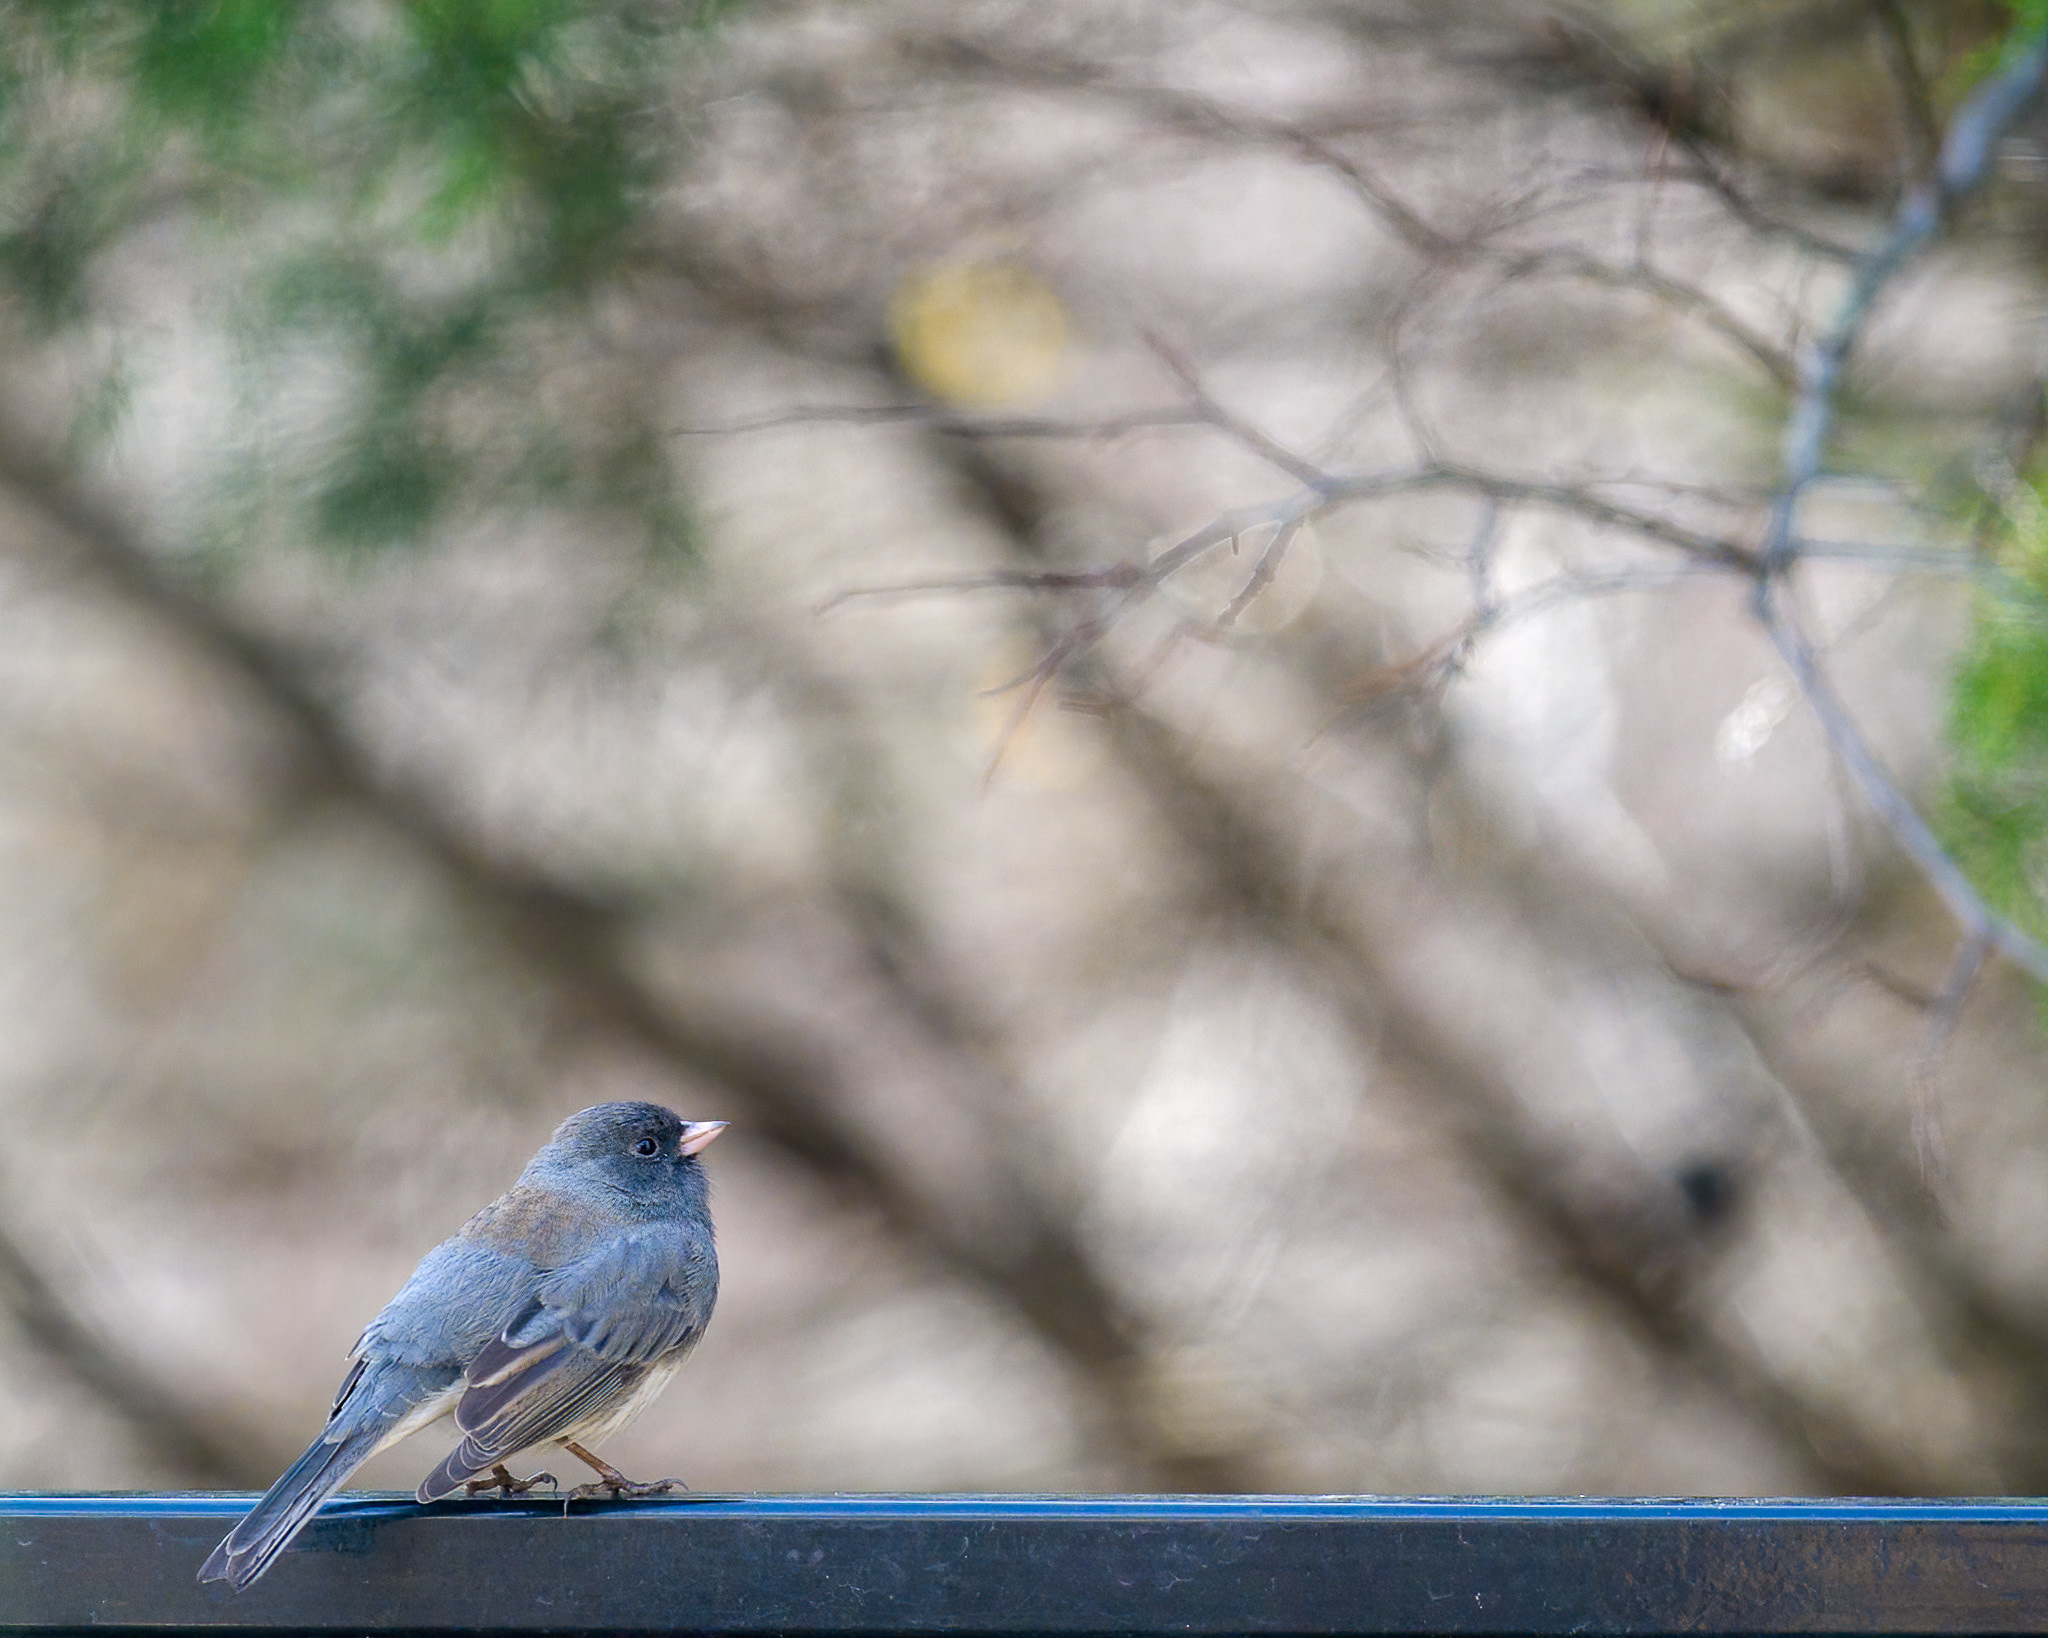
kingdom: Animalia
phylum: Chordata
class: Aves
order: Passeriformes
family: Passerellidae
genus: Junco
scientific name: Junco hyemalis
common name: Dark-eyed junco
